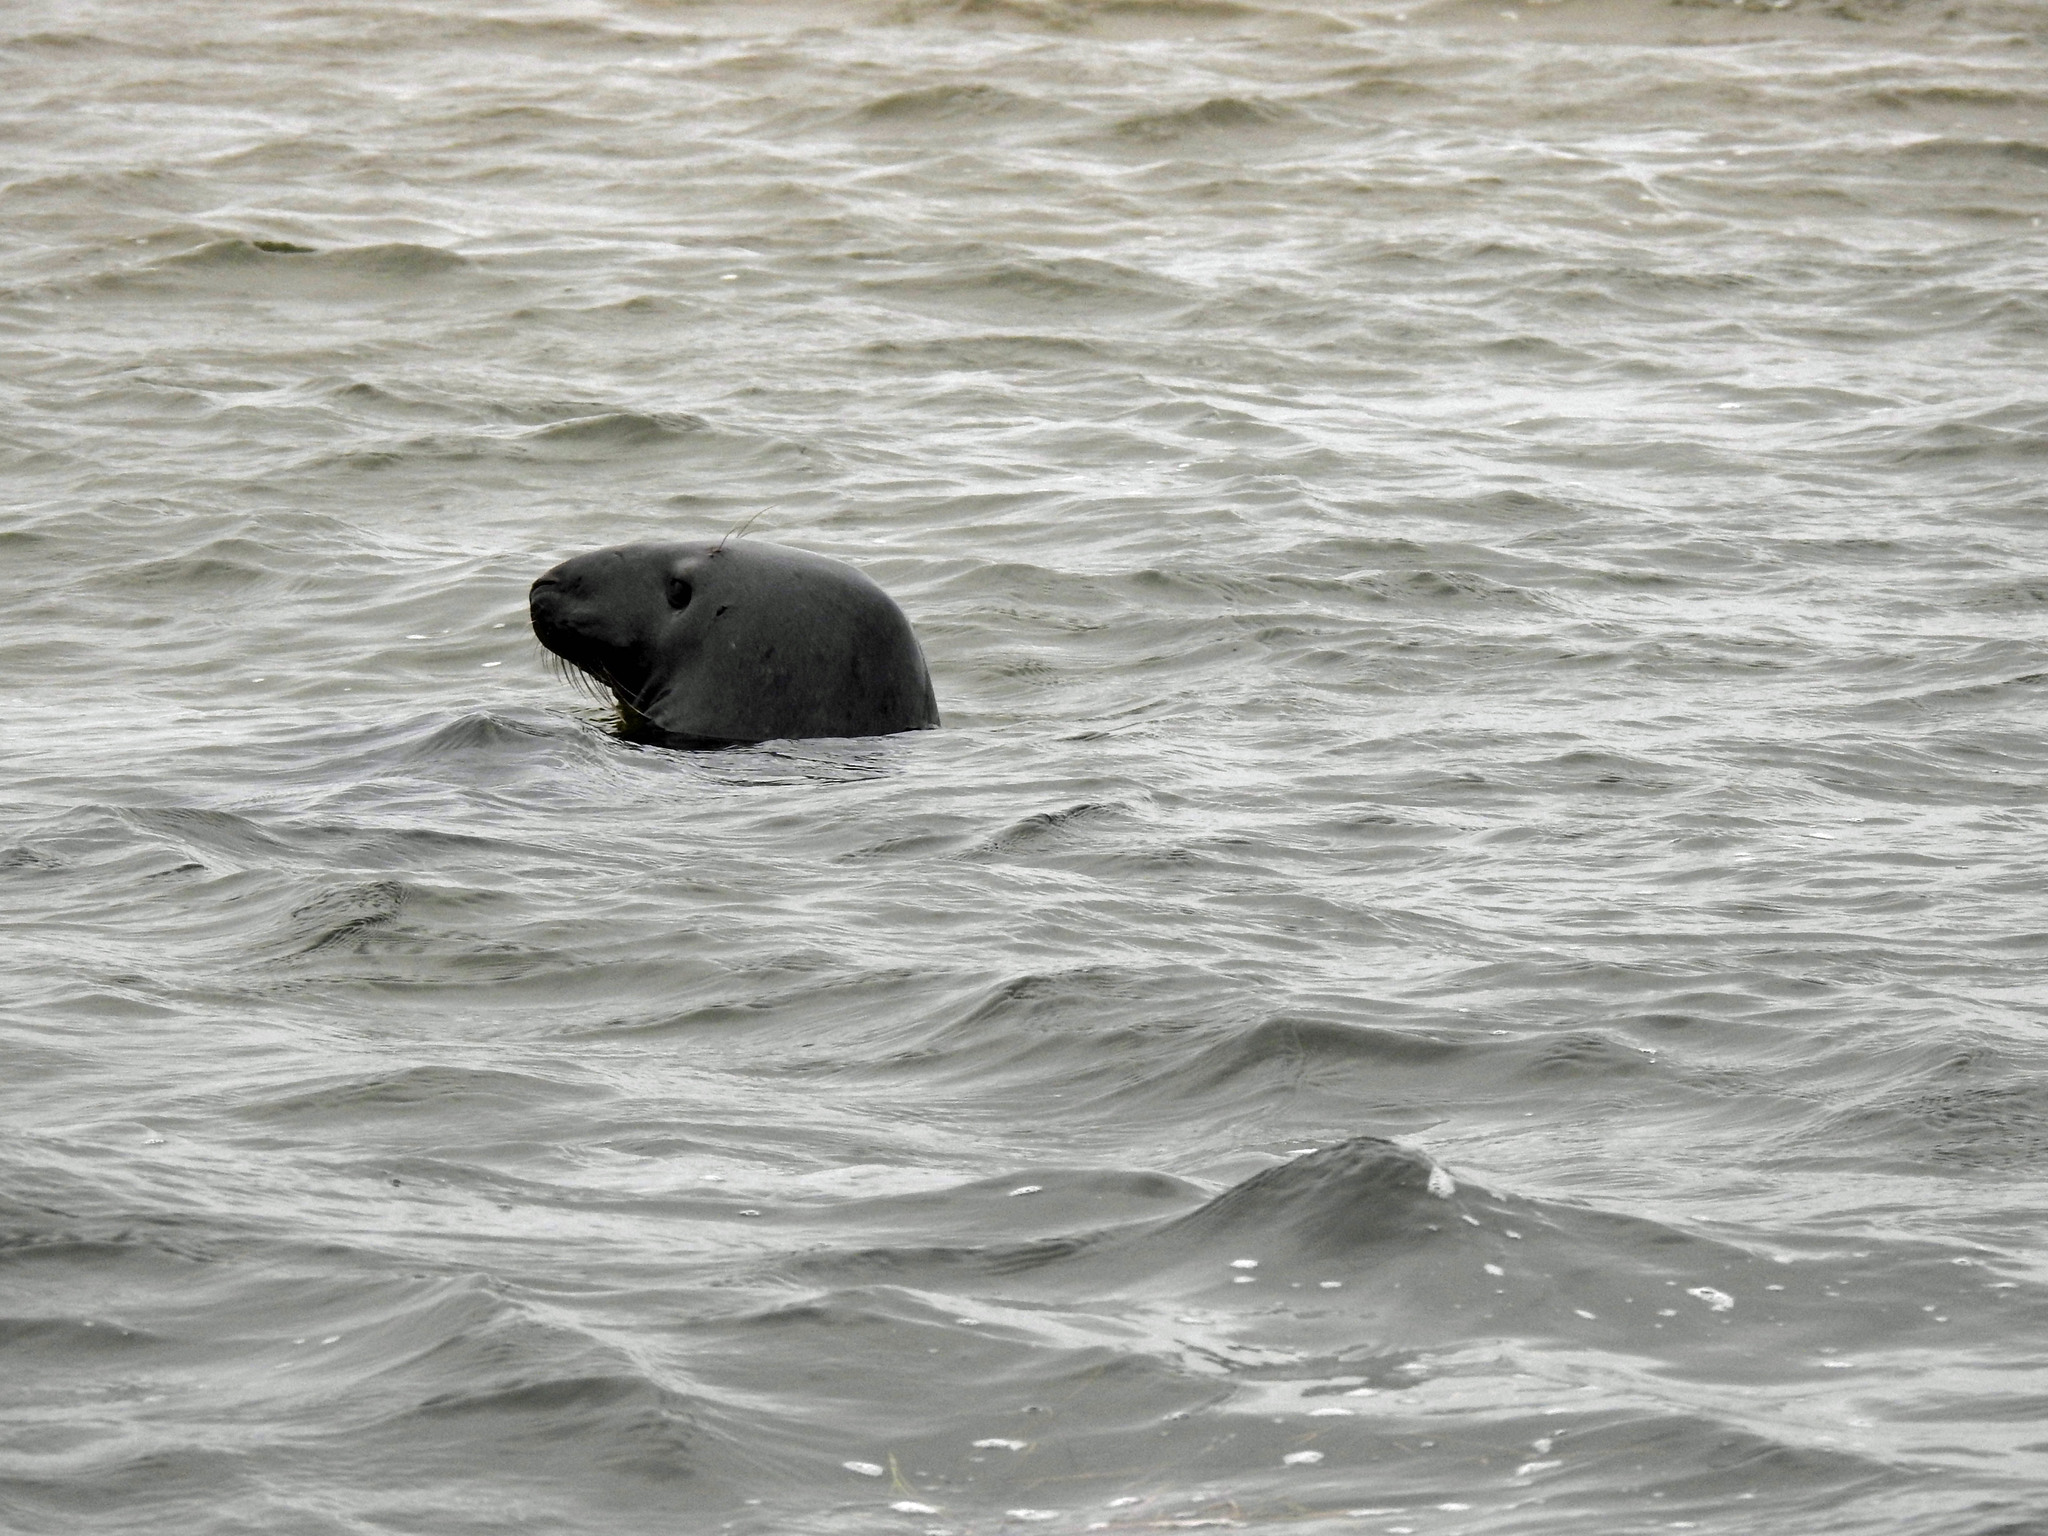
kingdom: Animalia
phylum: Chordata
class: Mammalia
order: Carnivora
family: Phocidae
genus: Halichoerus
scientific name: Halichoerus grypus
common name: Grey seal
